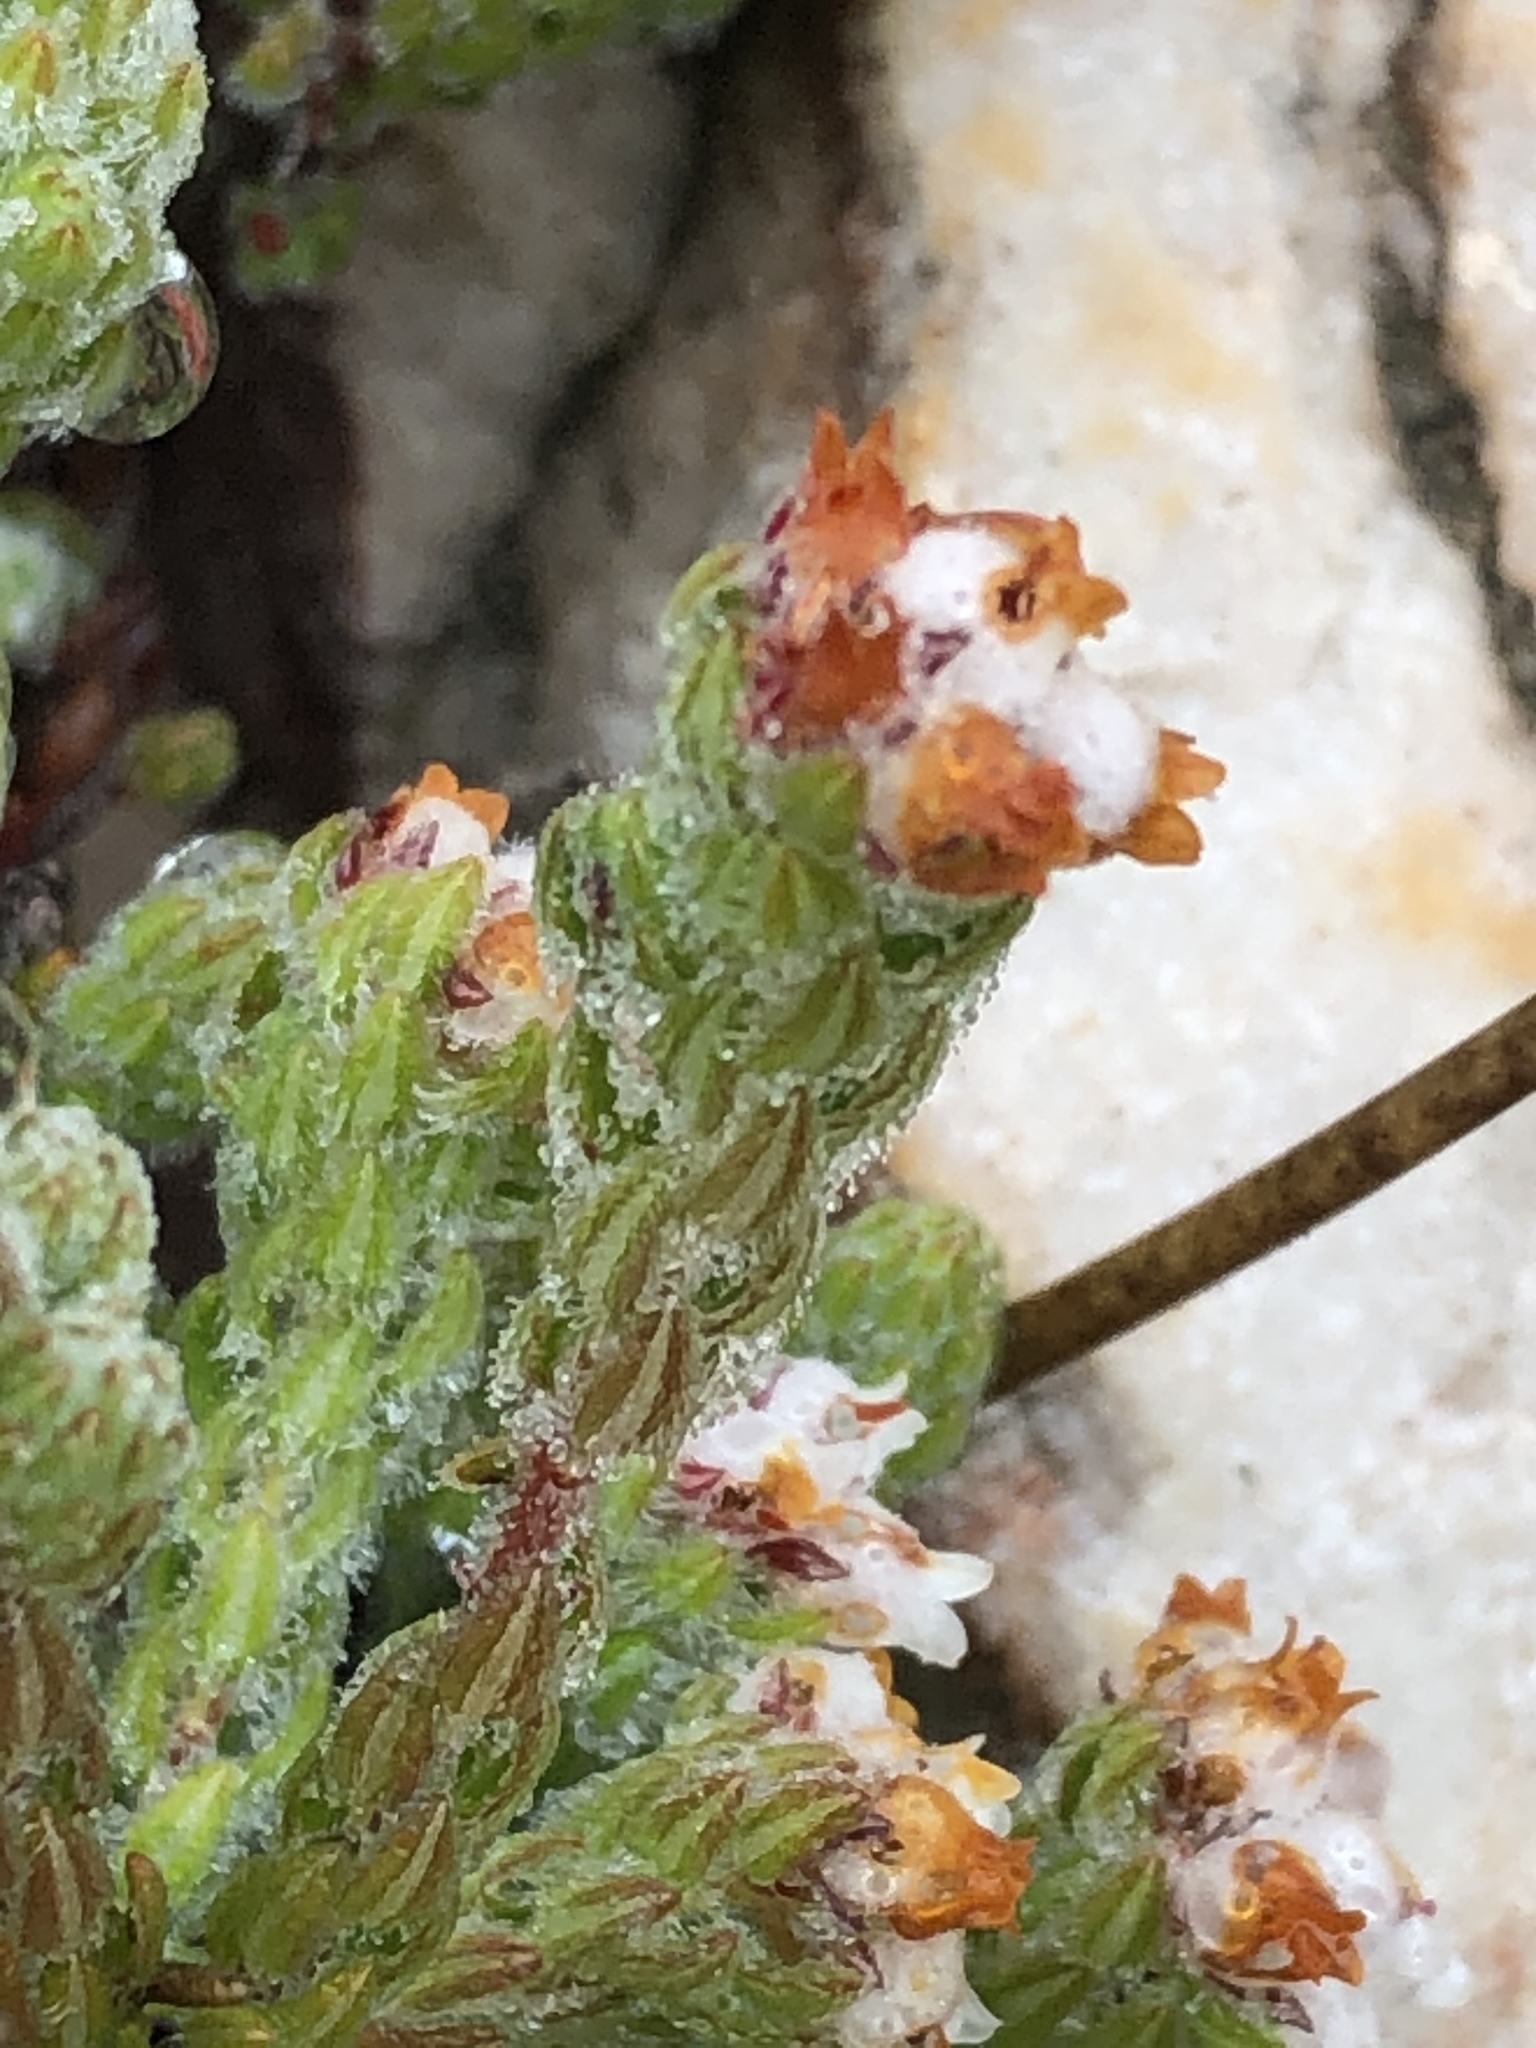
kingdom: Plantae
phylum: Tracheophyta
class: Magnoliopsida
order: Ericales
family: Ericaceae
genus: Erica
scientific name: Erica oreotragus
